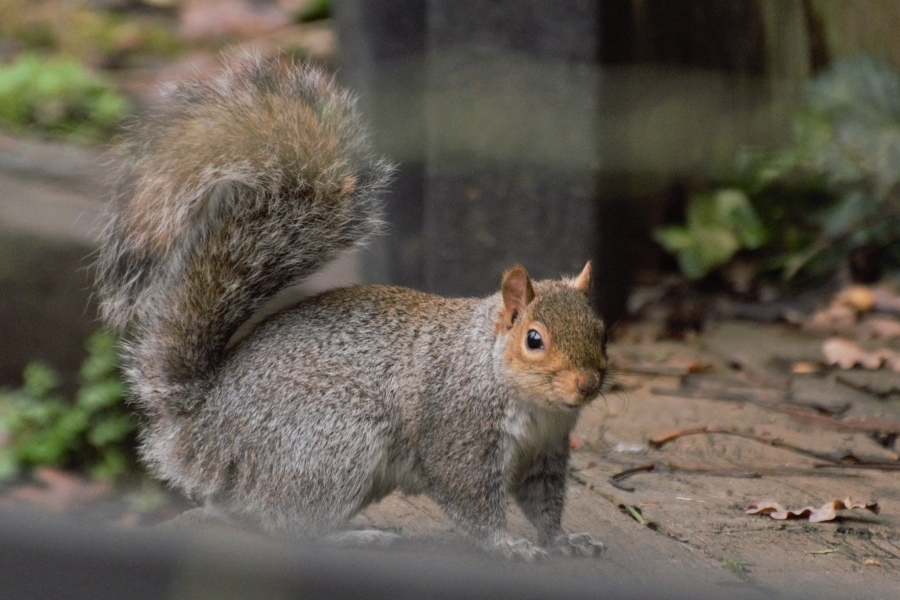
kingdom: Animalia
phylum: Chordata
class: Mammalia
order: Rodentia
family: Sciuridae
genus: Sciurus
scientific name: Sciurus carolinensis
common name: Eastern gray squirrel
